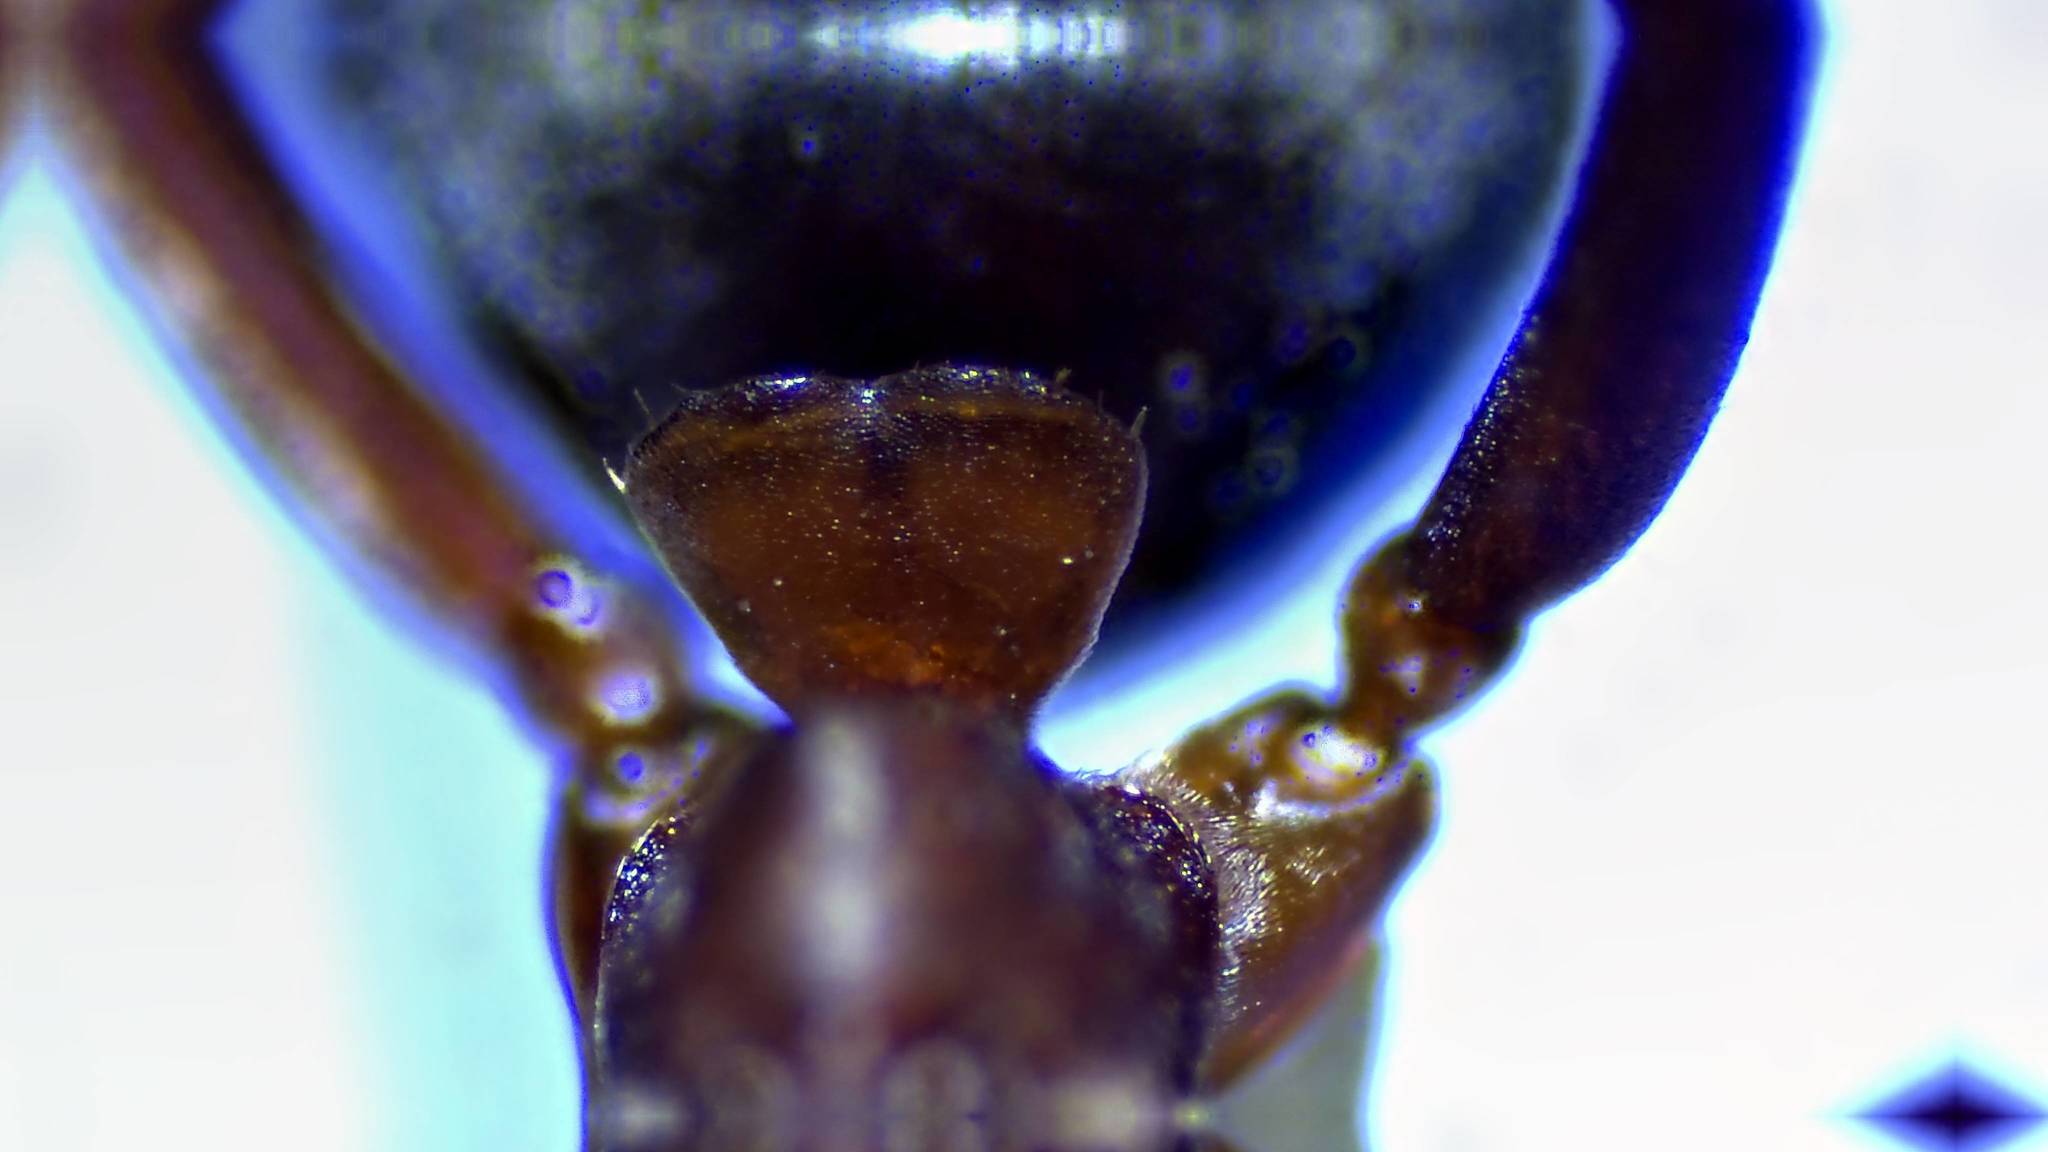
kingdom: Animalia
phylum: Arthropoda
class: Insecta
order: Hymenoptera
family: Formicidae
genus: Formica
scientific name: Formica rubicunda
